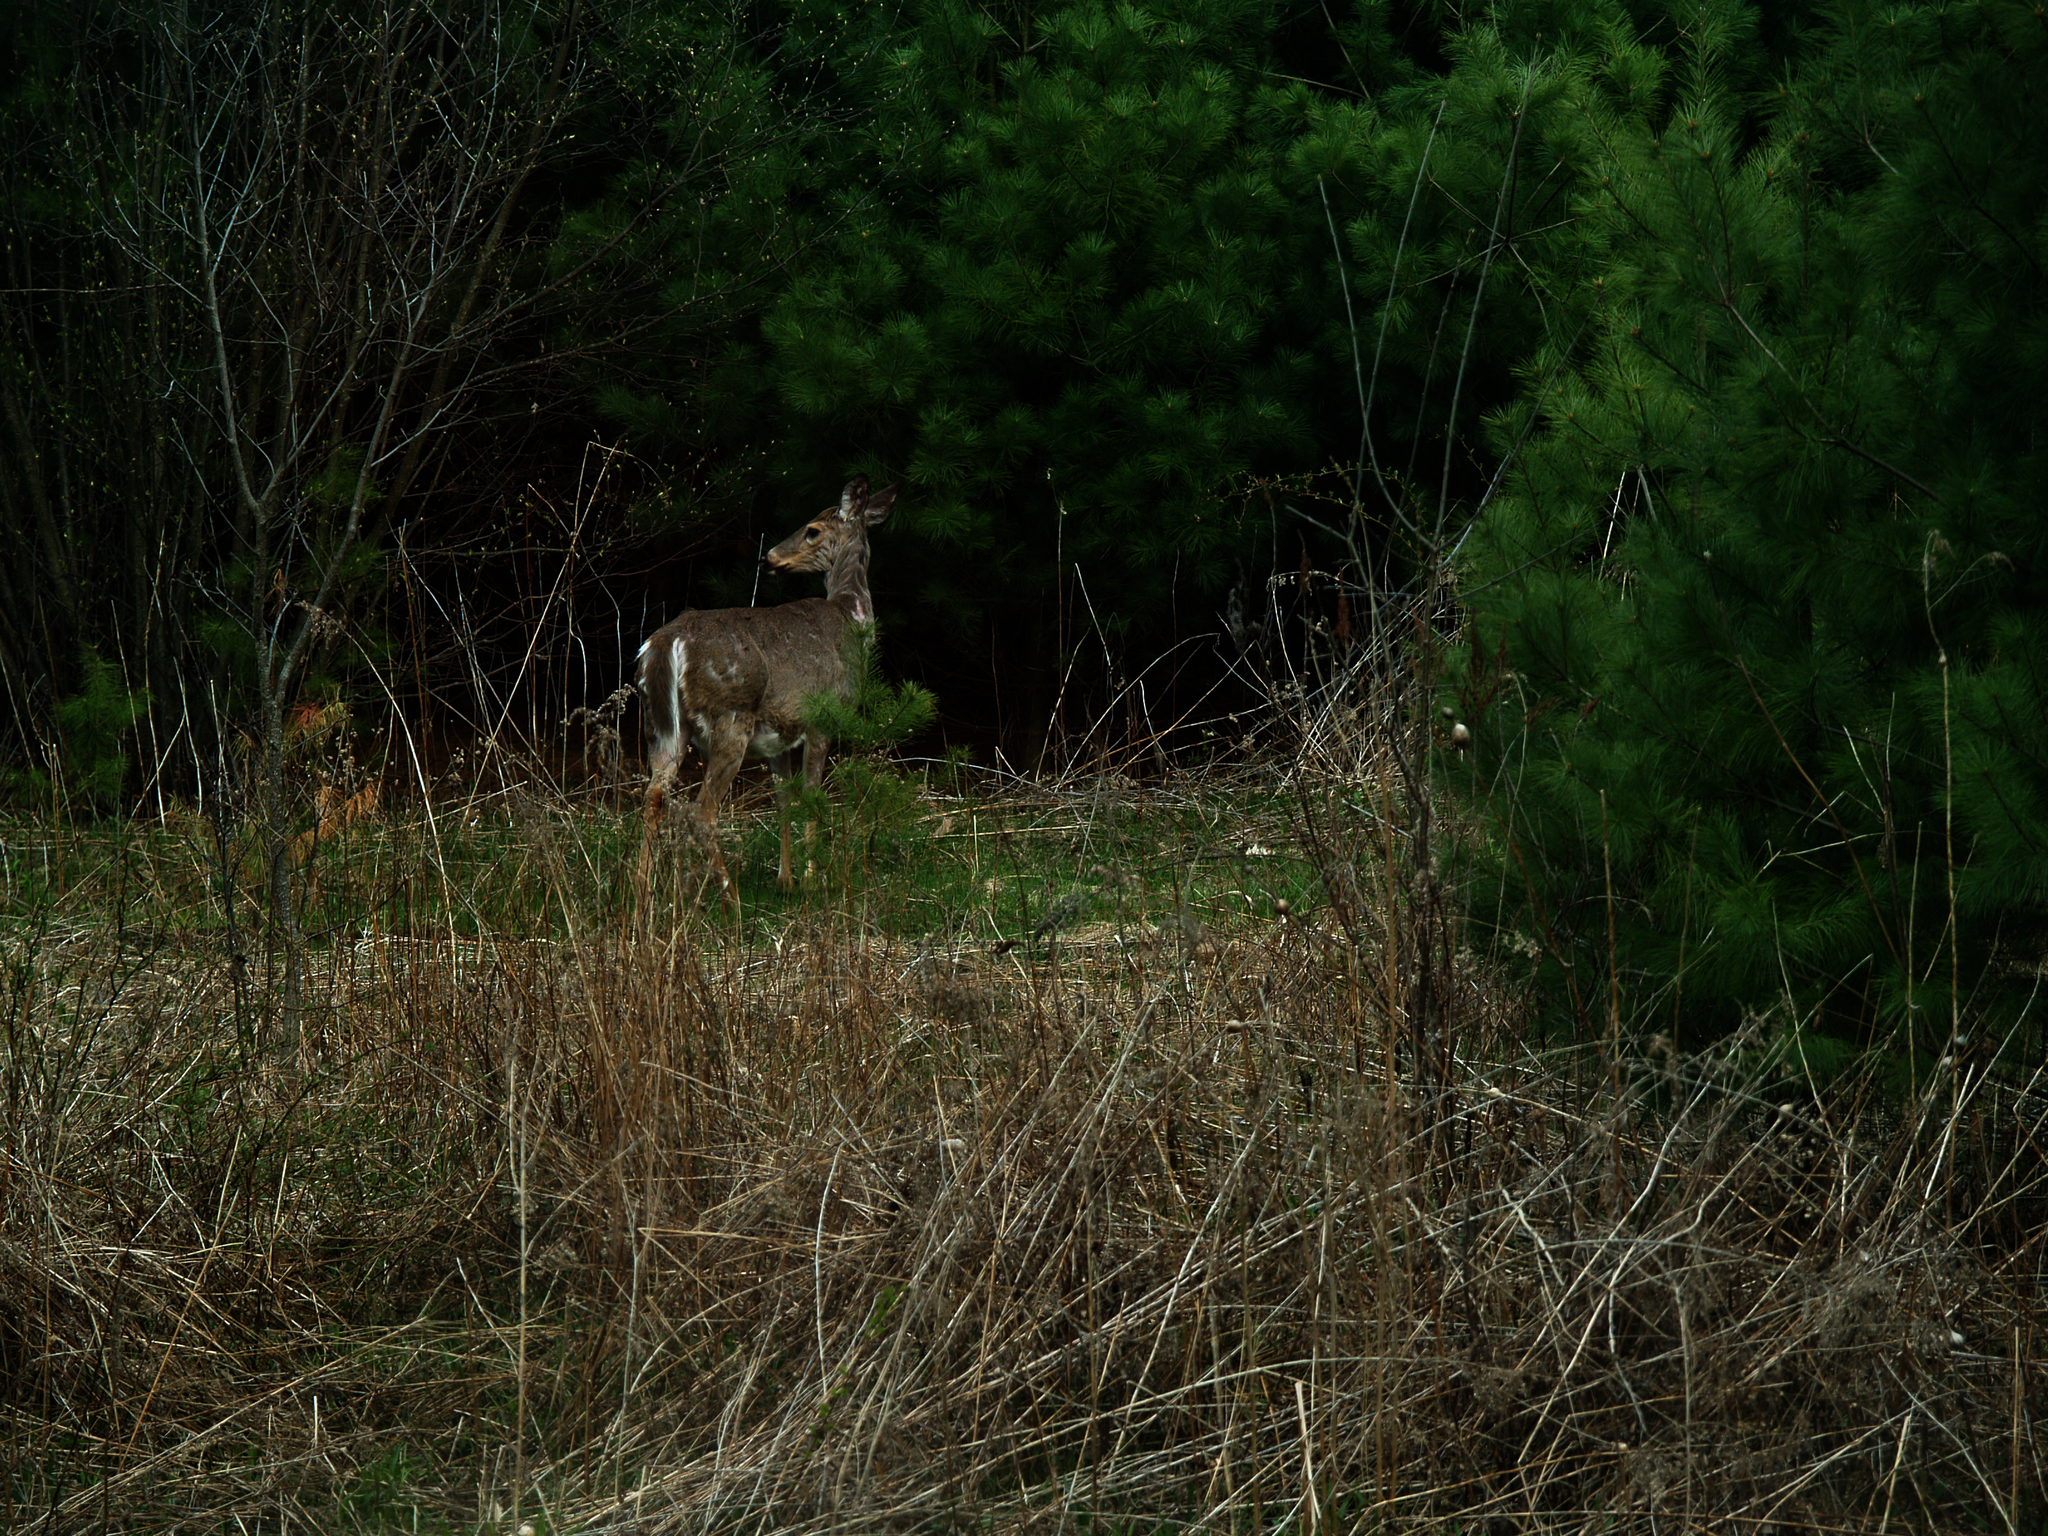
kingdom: Animalia
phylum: Chordata
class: Mammalia
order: Artiodactyla
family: Cervidae
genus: Odocoileus
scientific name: Odocoileus virginianus
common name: White-tailed deer
